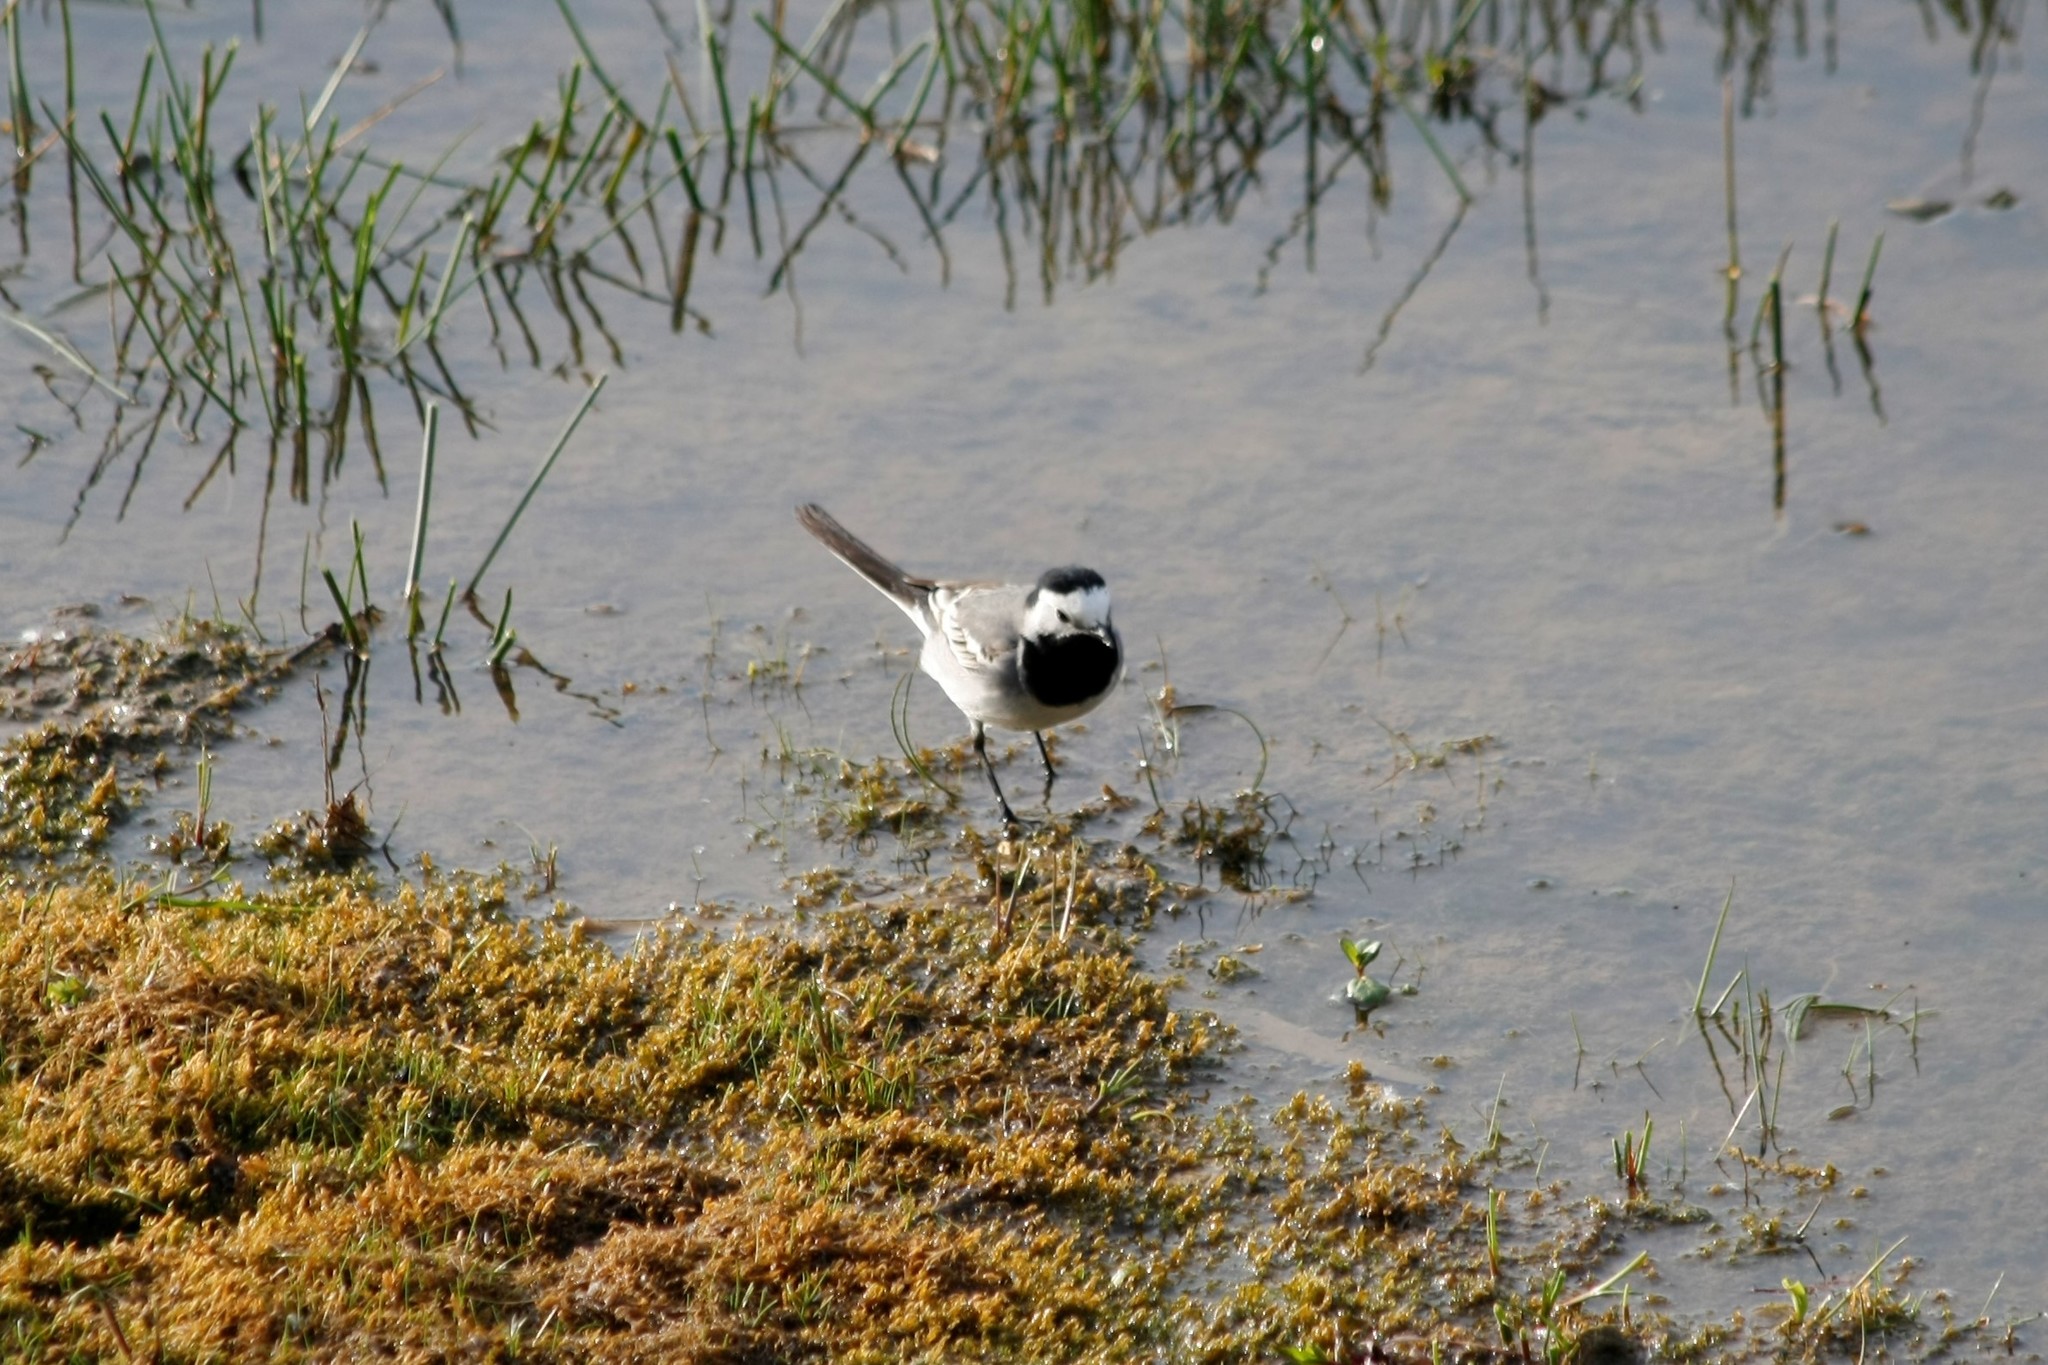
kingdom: Animalia
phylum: Chordata
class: Aves
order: Passeriformes
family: Motacillidae
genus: Motacilla
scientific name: Motacilla alba
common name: White wagtail
